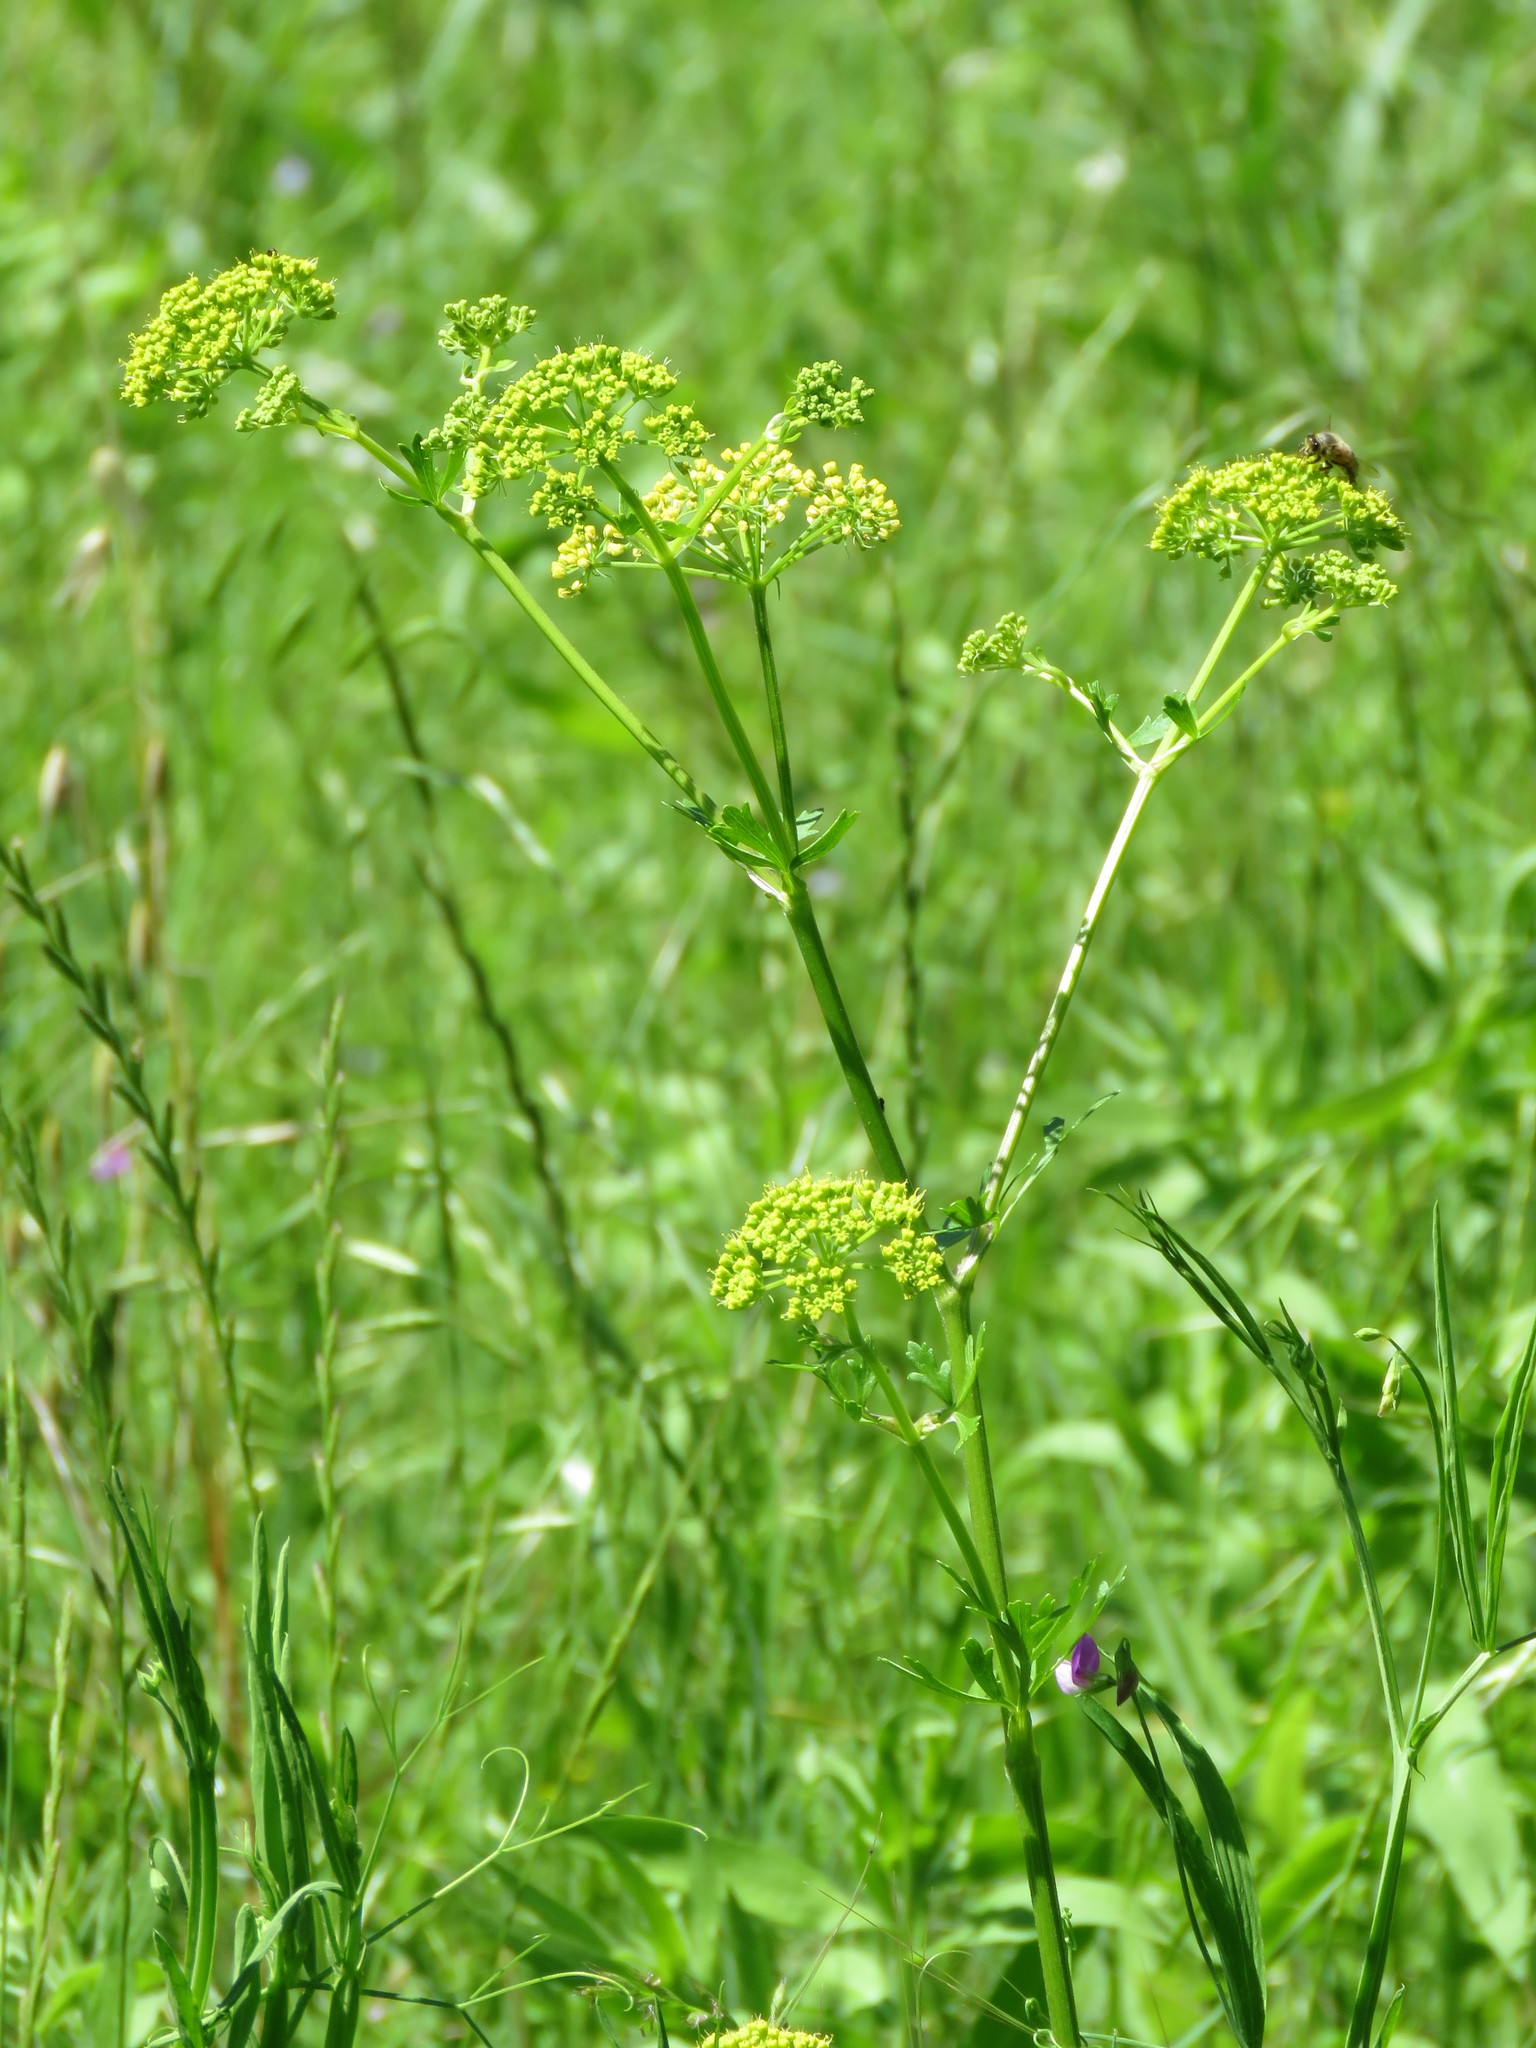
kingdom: Plantae
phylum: Tracheophyta
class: Magnoliopsida
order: Apiales
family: Apiaceae
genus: Polytaenia
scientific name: Polytaenia texana
